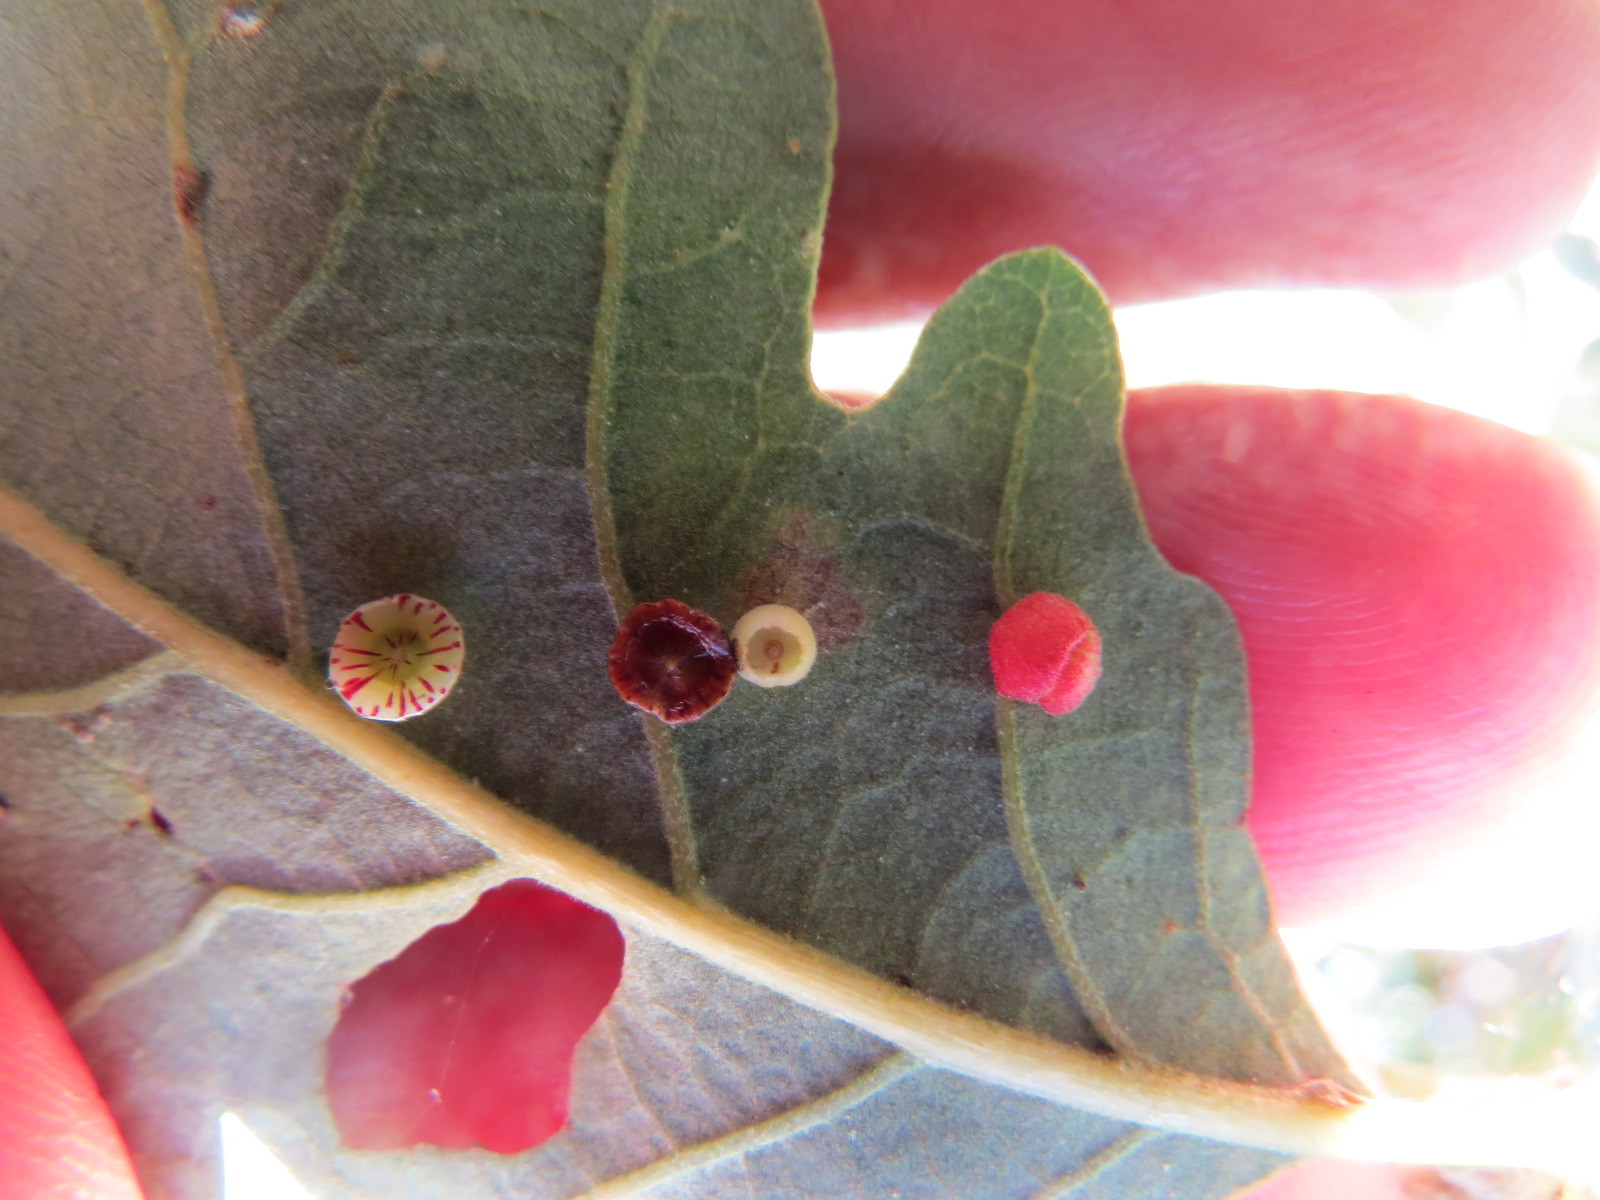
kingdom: Animalia
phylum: Arthropoda
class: Insecta
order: Hymenoptera
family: Cynipidae
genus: Andricus
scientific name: Andricus
